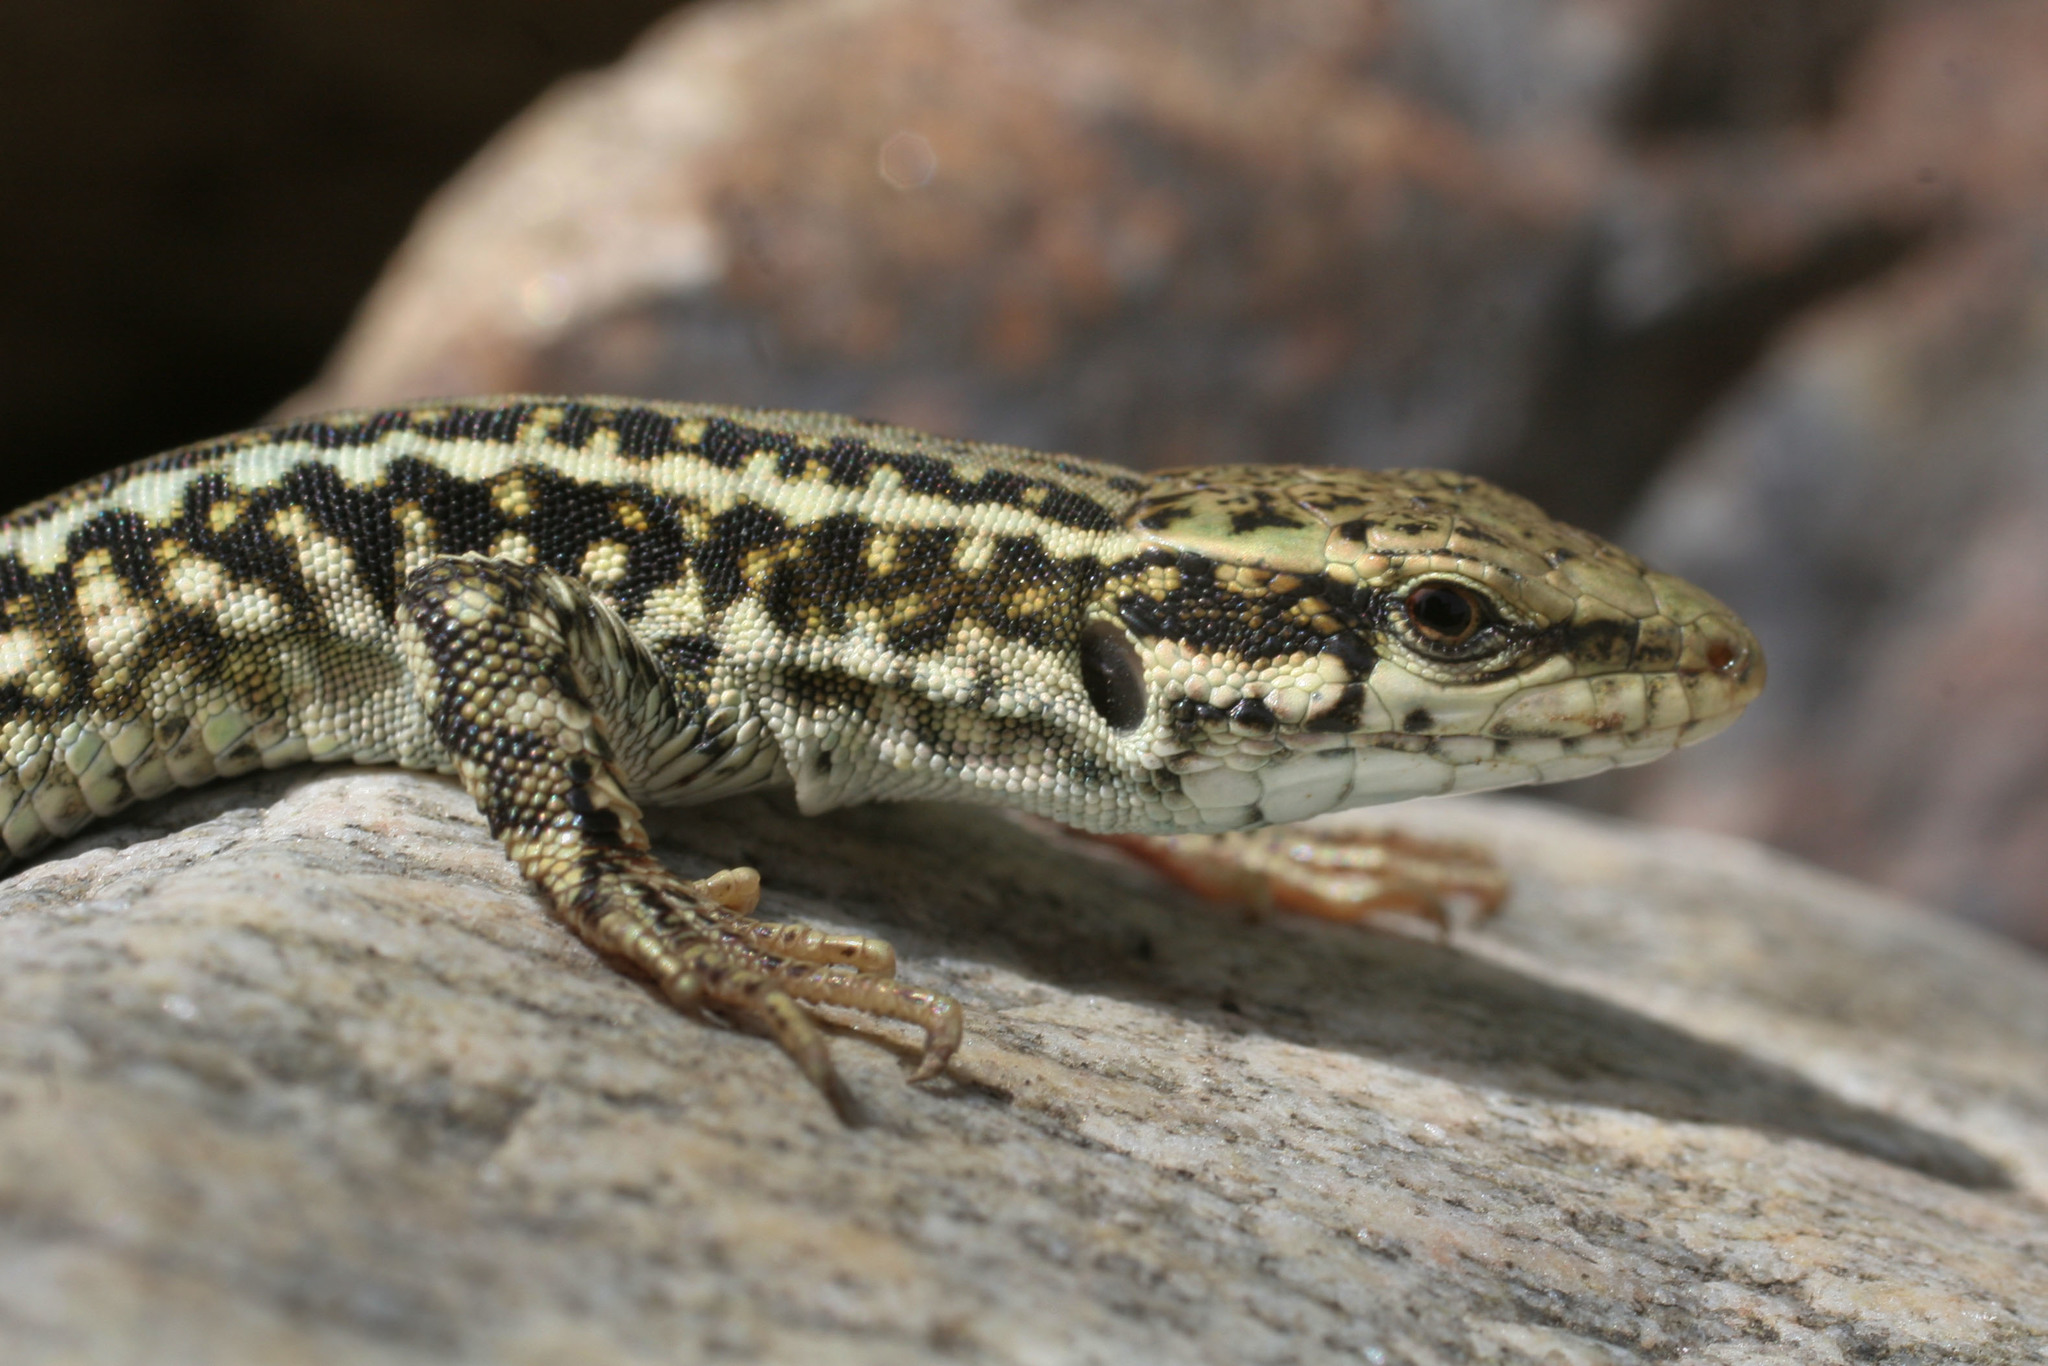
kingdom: Animalia
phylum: Chordata
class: Squamata
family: Lacertidae
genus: Podarcis
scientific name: Podarcis erhardii
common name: Erhard's wall lizard
